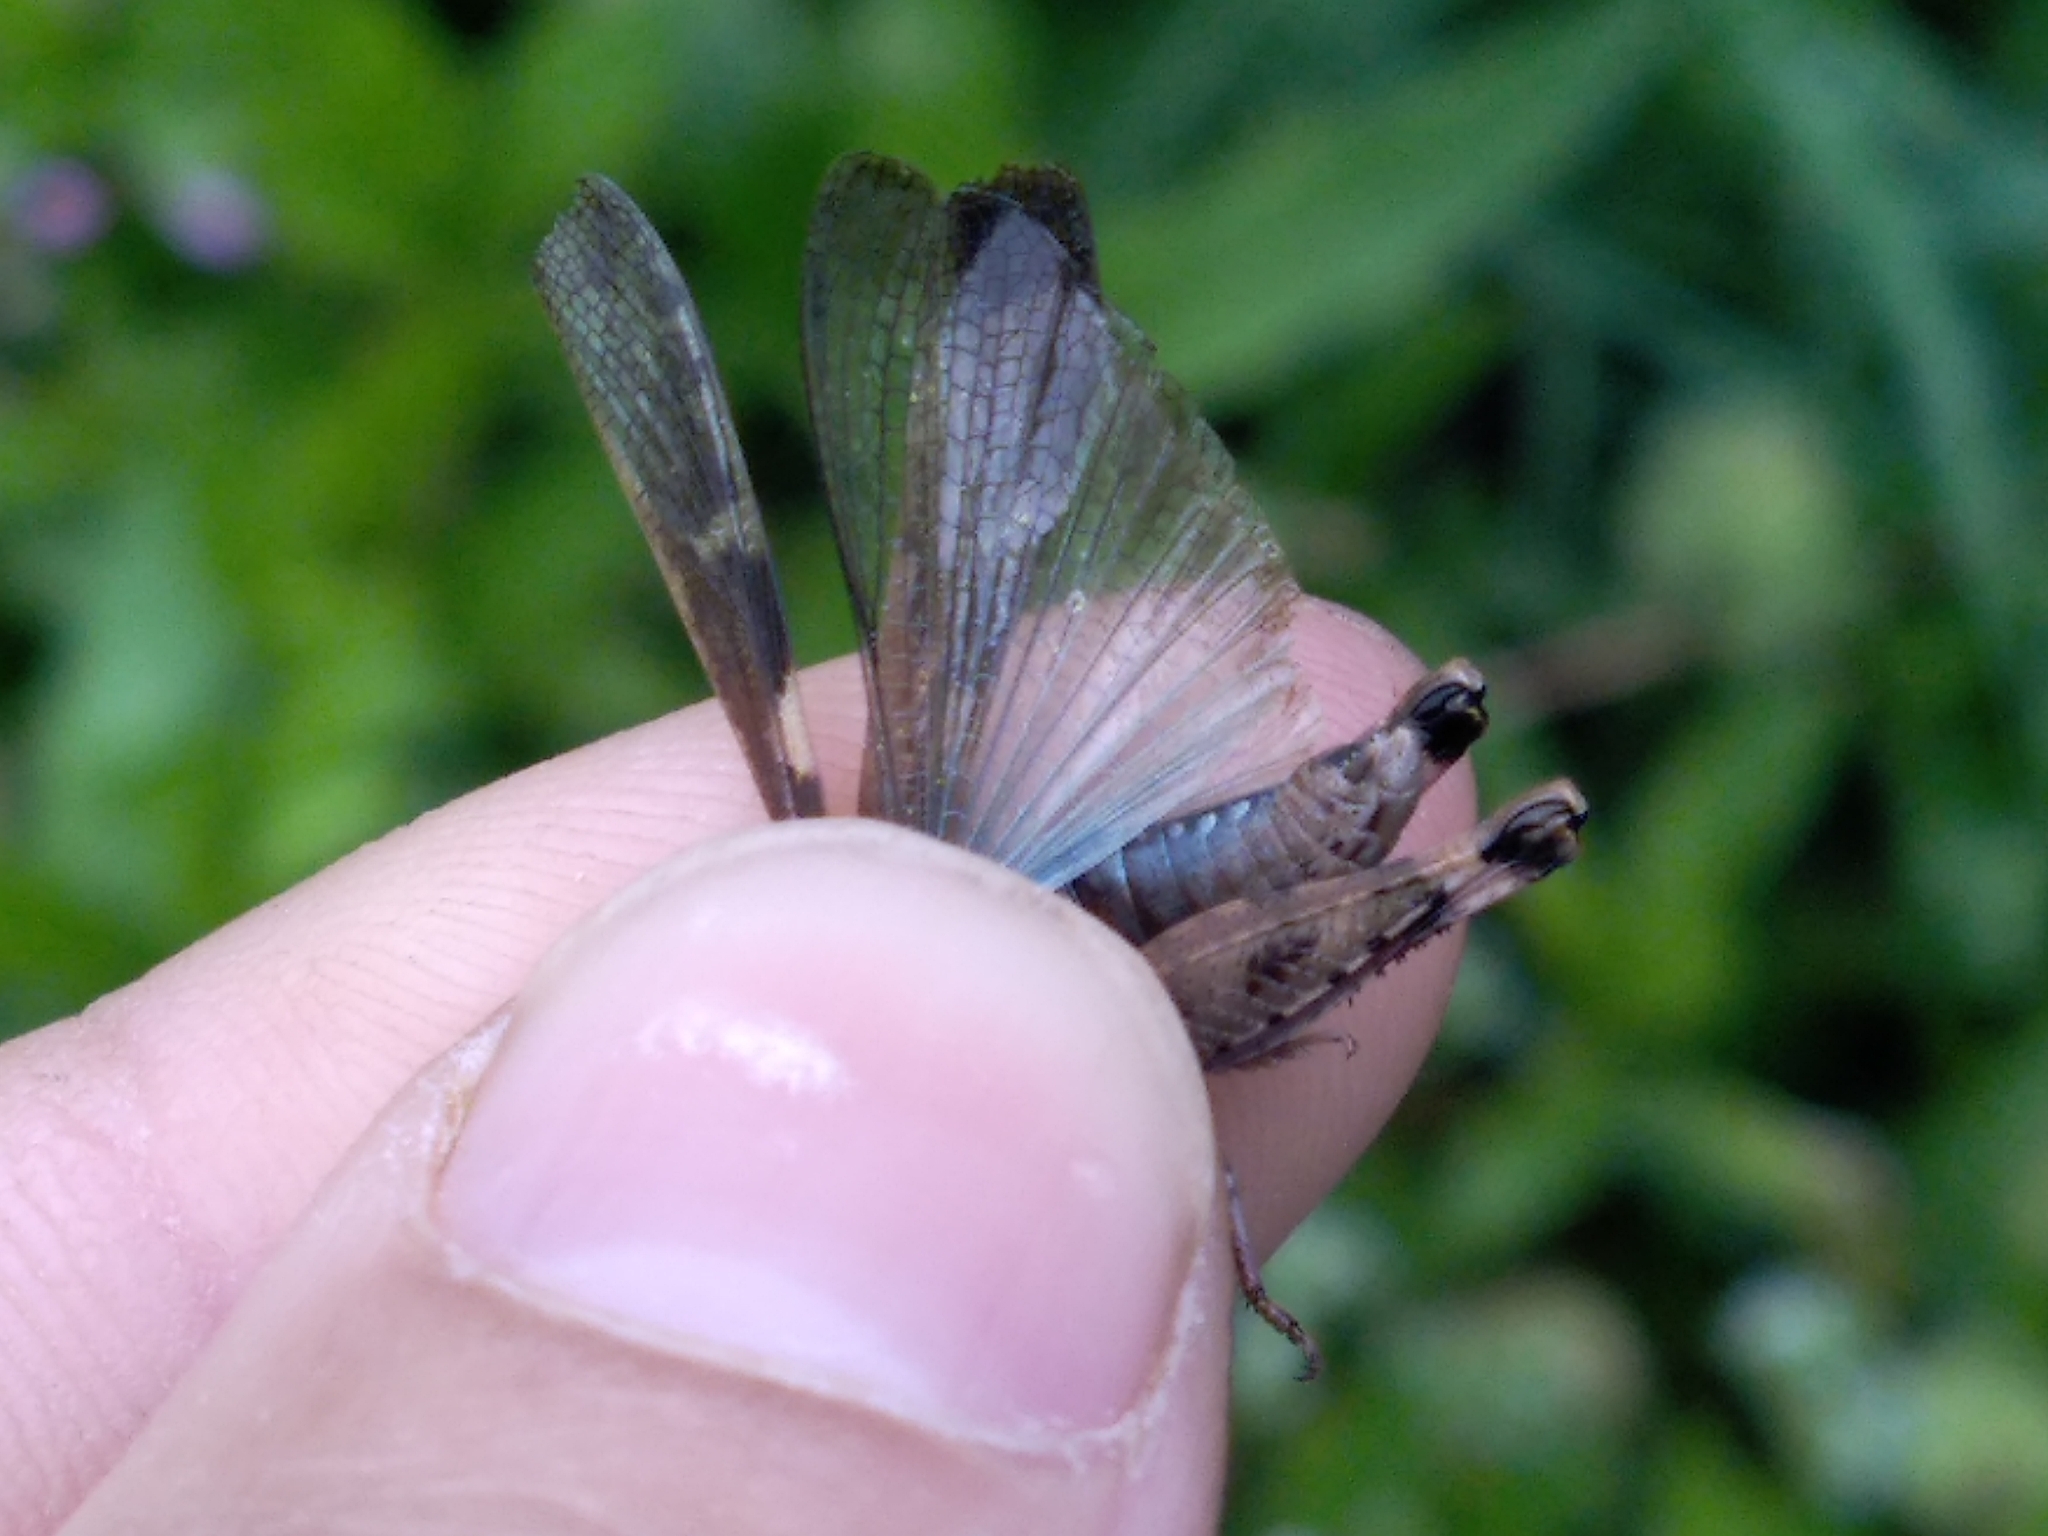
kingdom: Animalia
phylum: Arthropoda
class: Insecta
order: Orthoptera
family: Acrididae
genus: Aiolopus
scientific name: Aiolopus strepens
